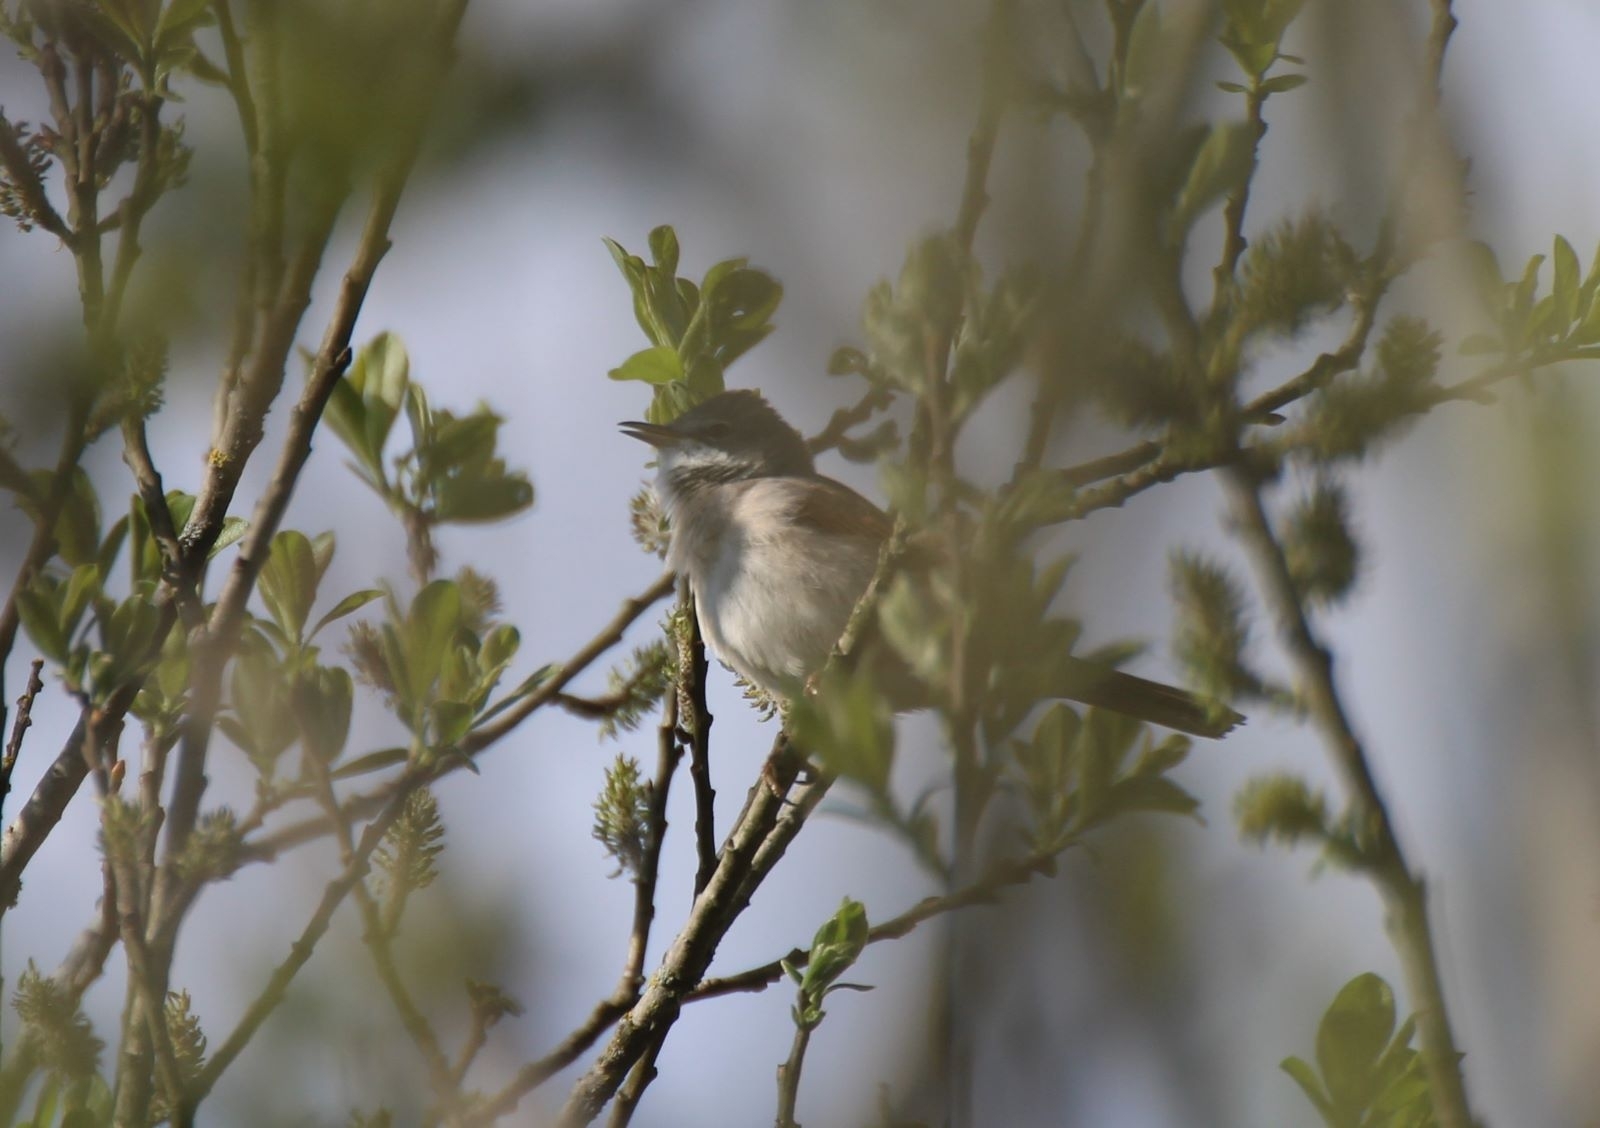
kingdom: Animalia
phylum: Chordata
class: Aves
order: Passeriformes
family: Sylviidae
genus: Sylvia
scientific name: Sylvia communis
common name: Common whitethroat
